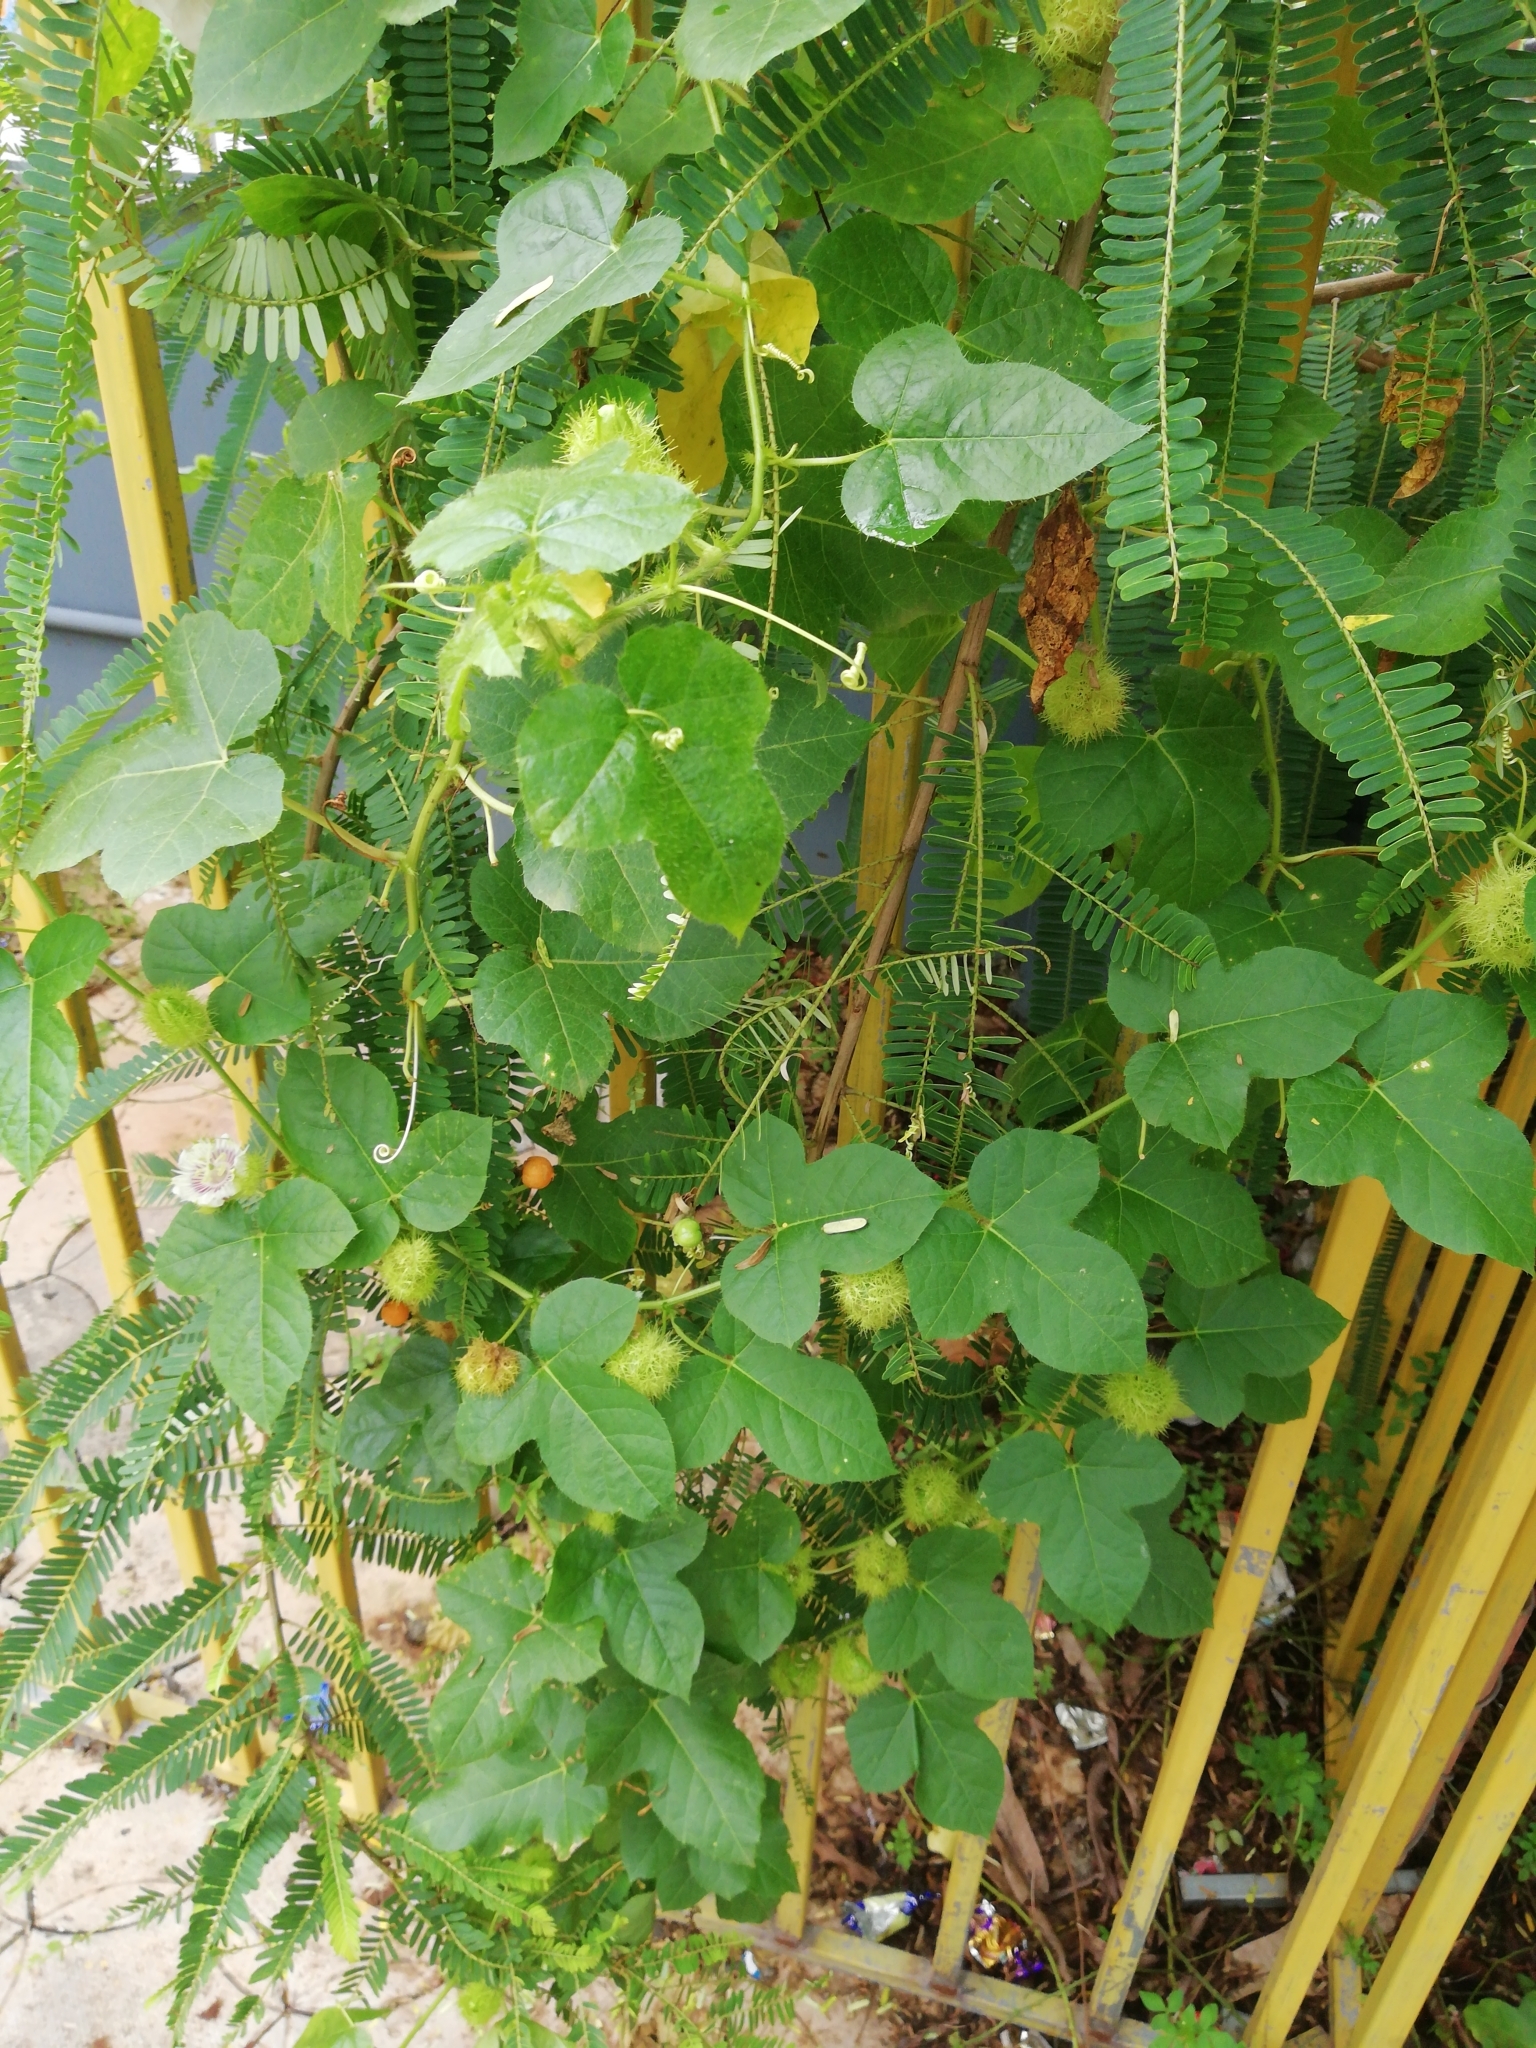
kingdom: Plantae
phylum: Tracheophyta
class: Magnoliopsida
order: Malpighiales
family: Passifloraceae
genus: Passiflora
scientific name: Passiflora foetida
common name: Fetid passionflower
